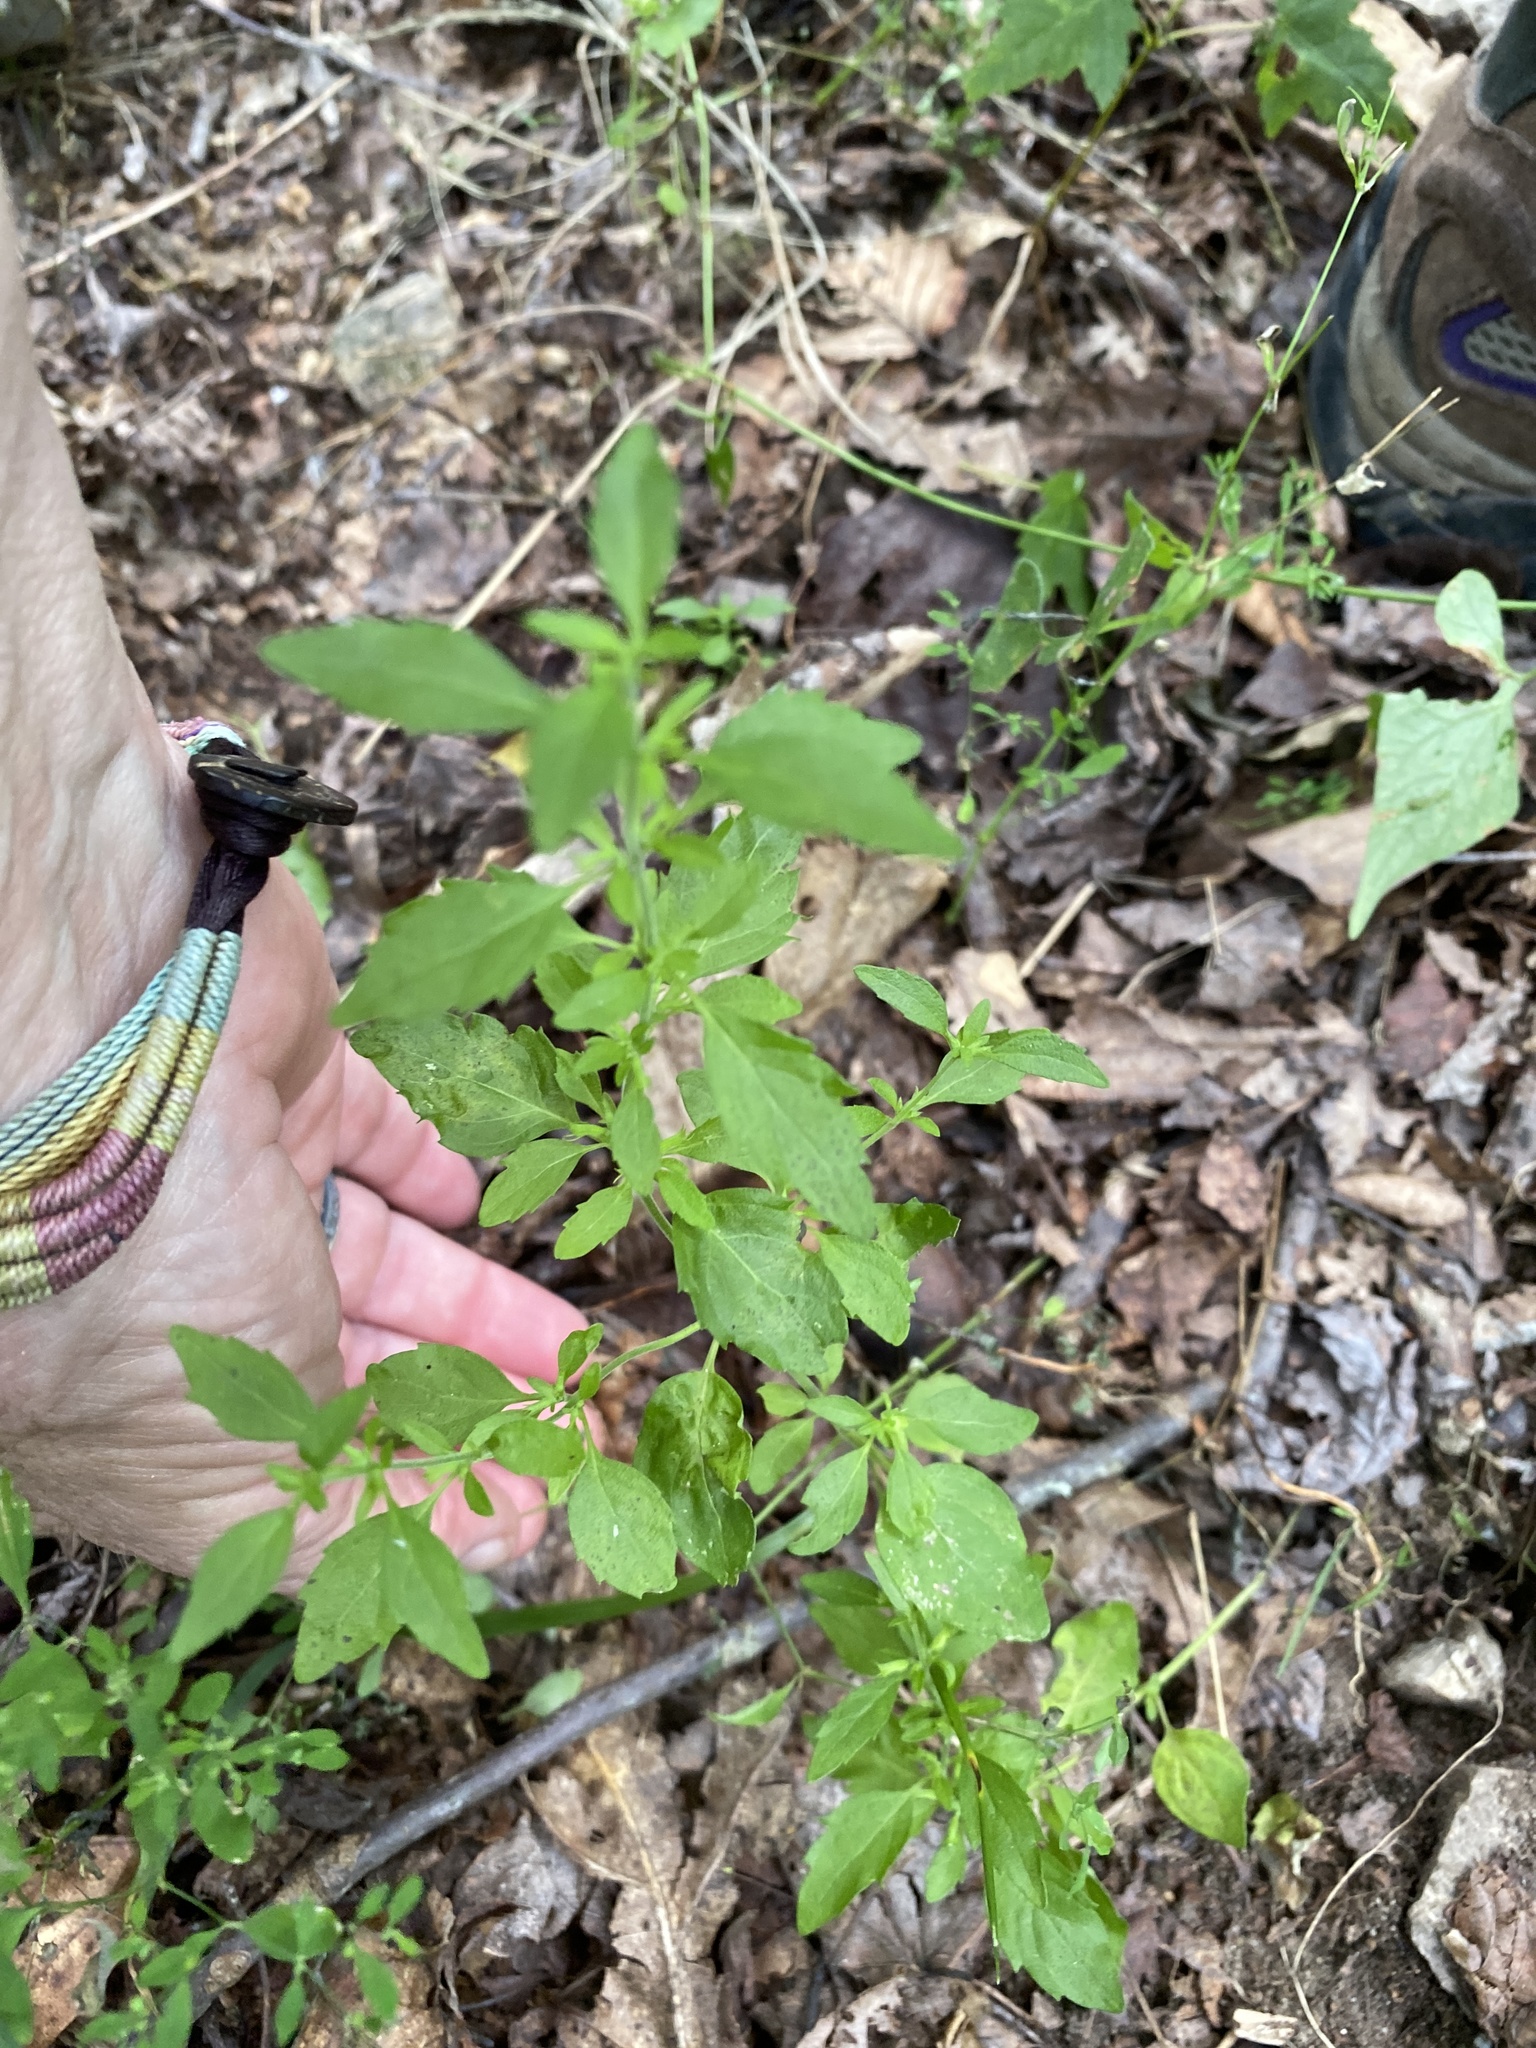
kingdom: Plantae
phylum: Tracheophyta
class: Magnoliopsida
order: Lamiales
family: Lamiaceae
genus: Hedeoma
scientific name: Hedeoma pulegioides
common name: American false pennyroyal
